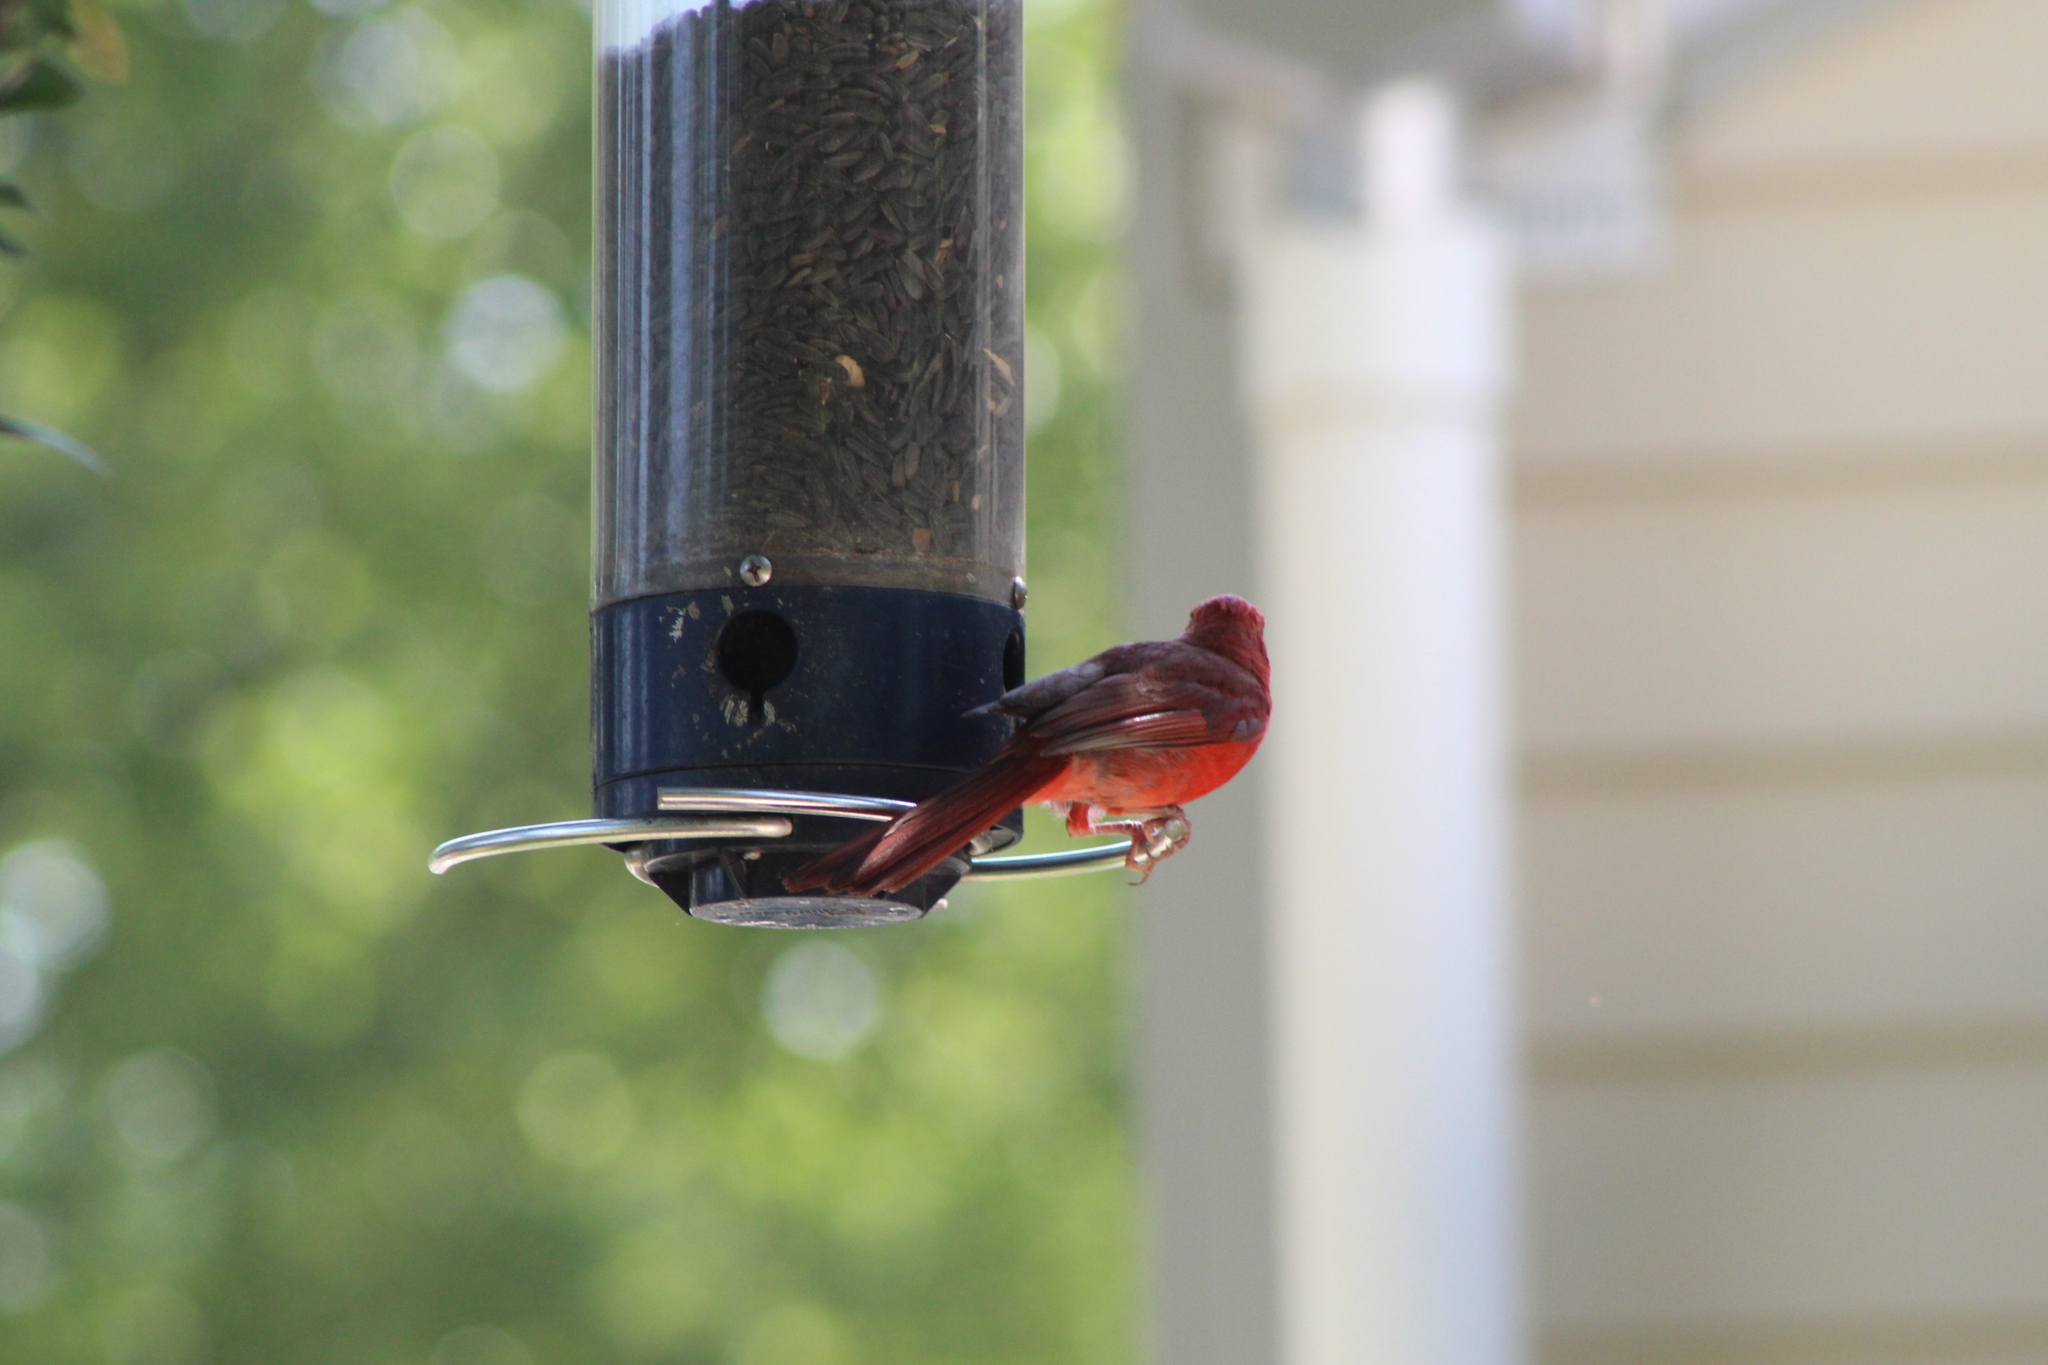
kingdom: Animalia
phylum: Chordata
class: Aves
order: Passeriformes
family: Cardinalidae
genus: Cardinalis
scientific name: Cardinalis cardinalis
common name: Northern cardinal
